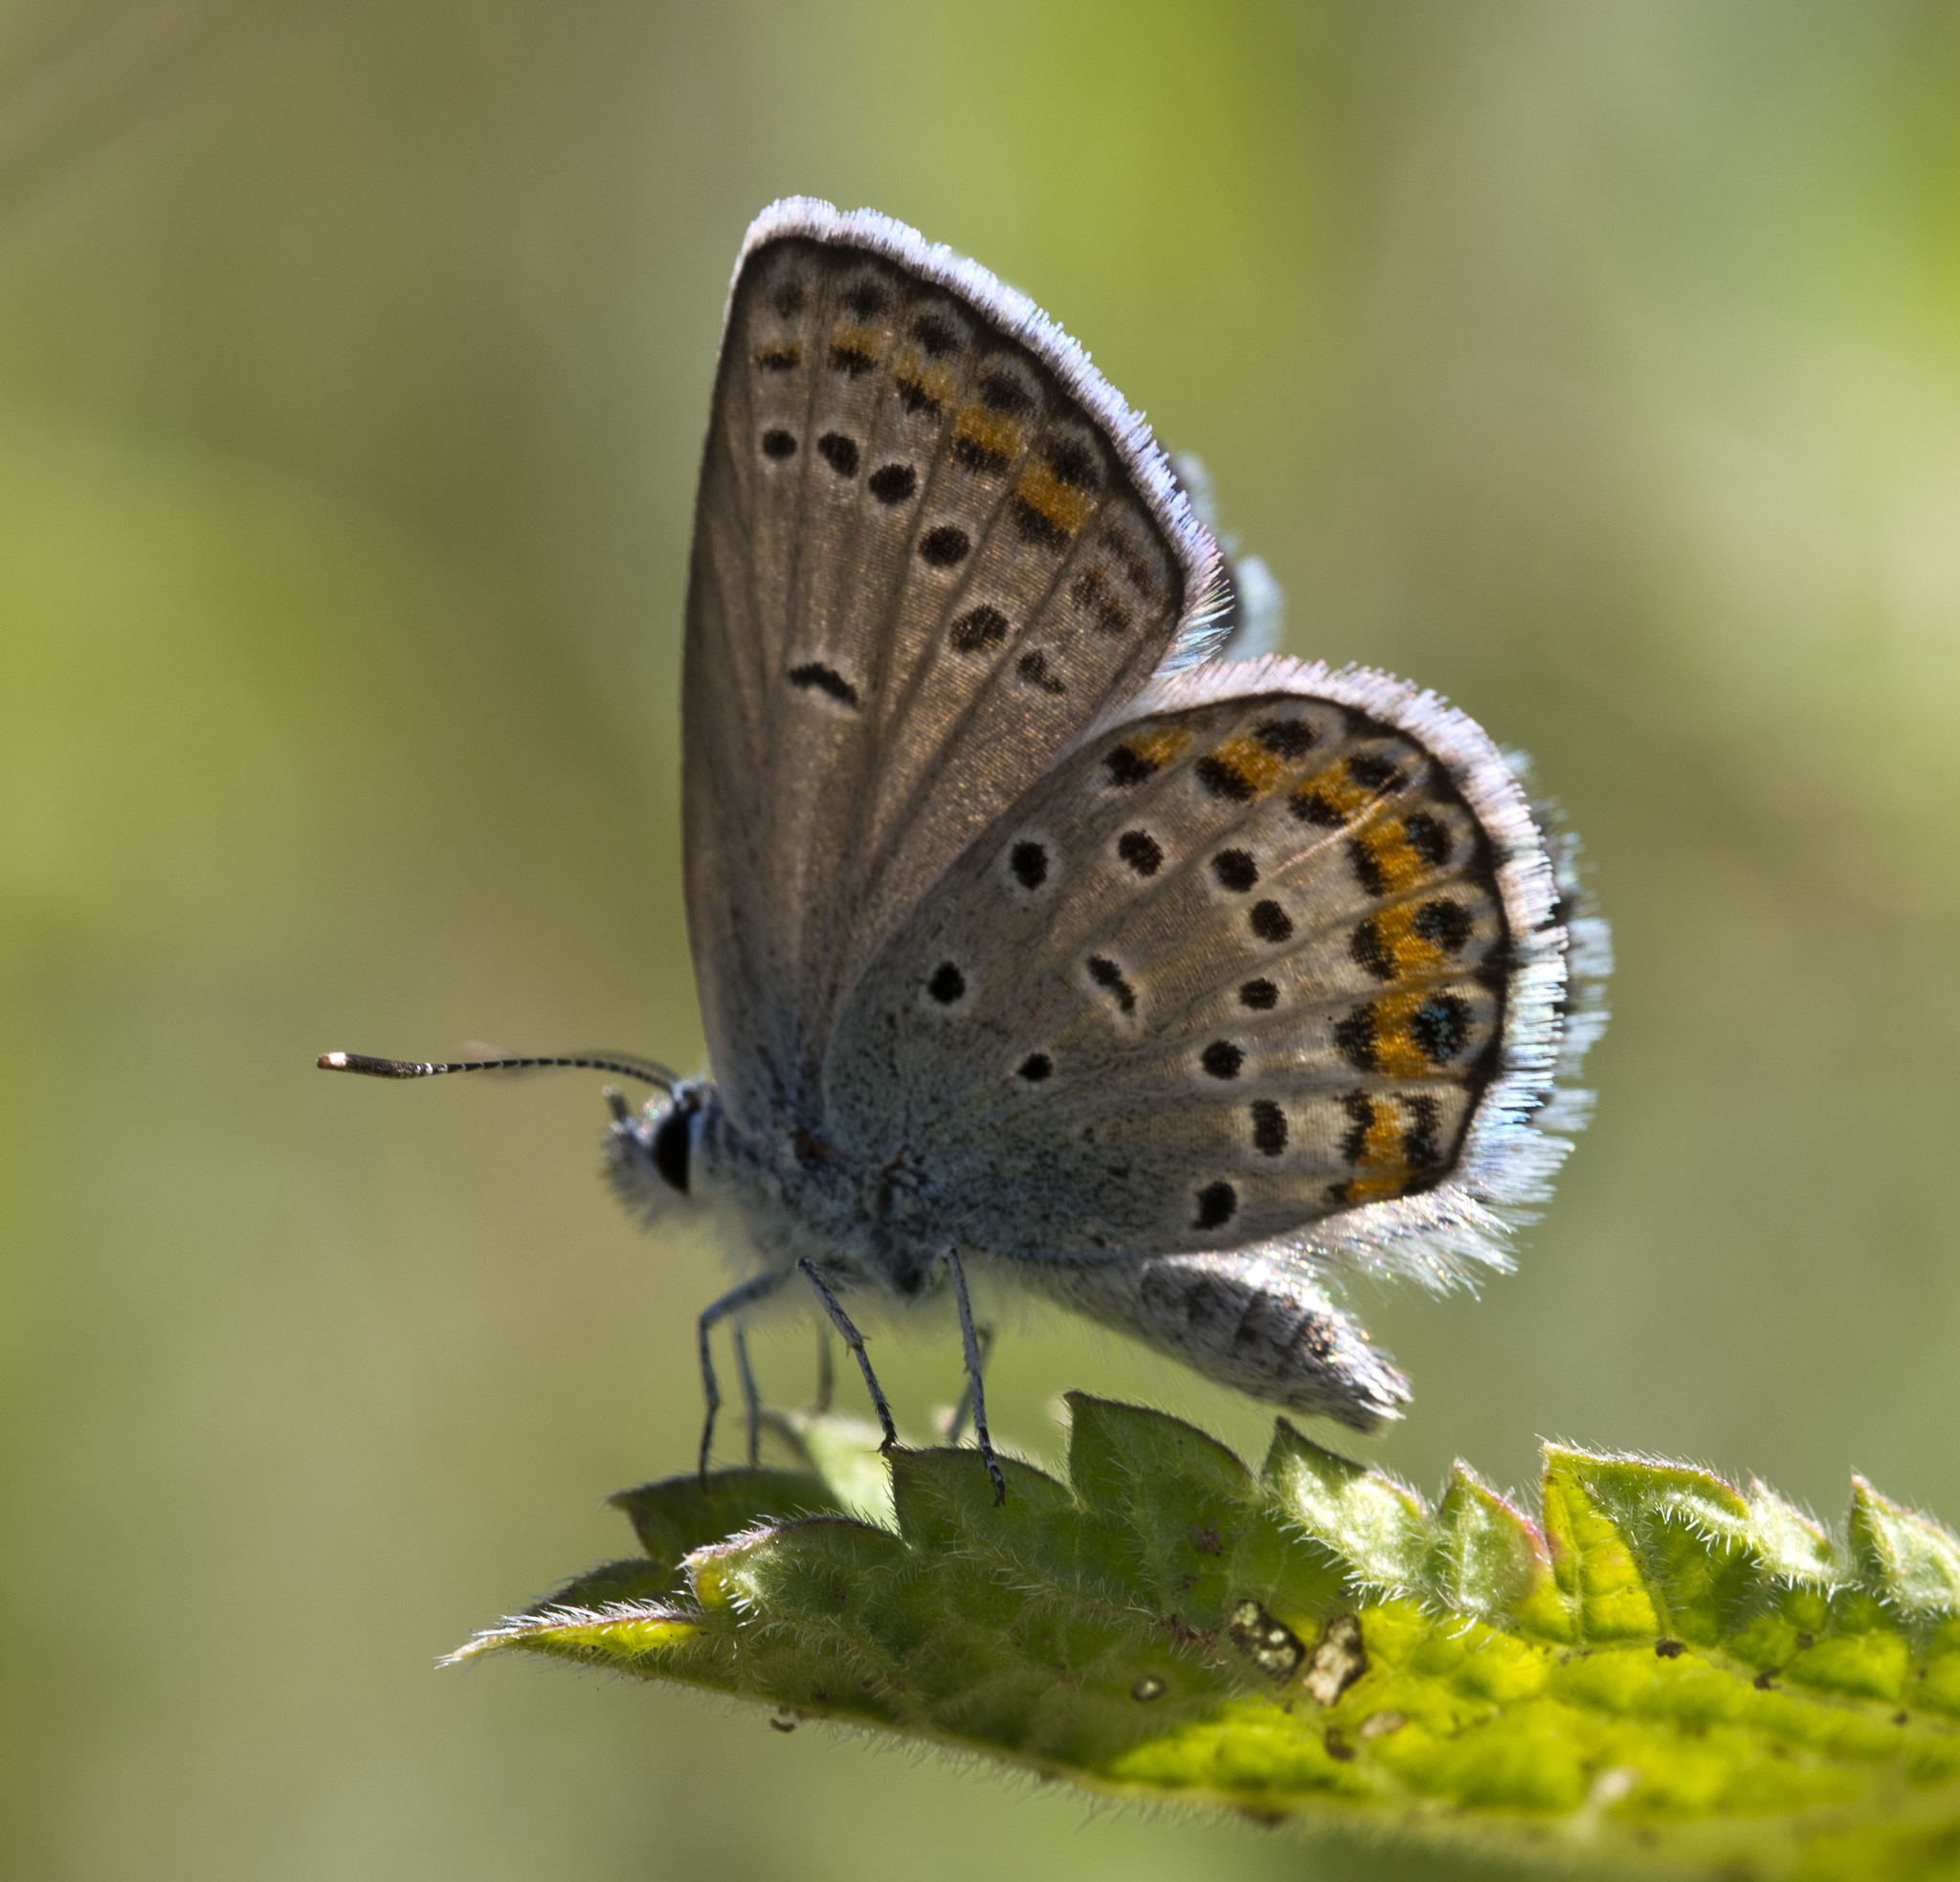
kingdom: Animalia
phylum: Arthropoda
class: Insecta
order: Lepidoptera
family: Lycaenidae
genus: Lycaeides
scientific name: Lycaeides melissa
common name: Melissa blue
